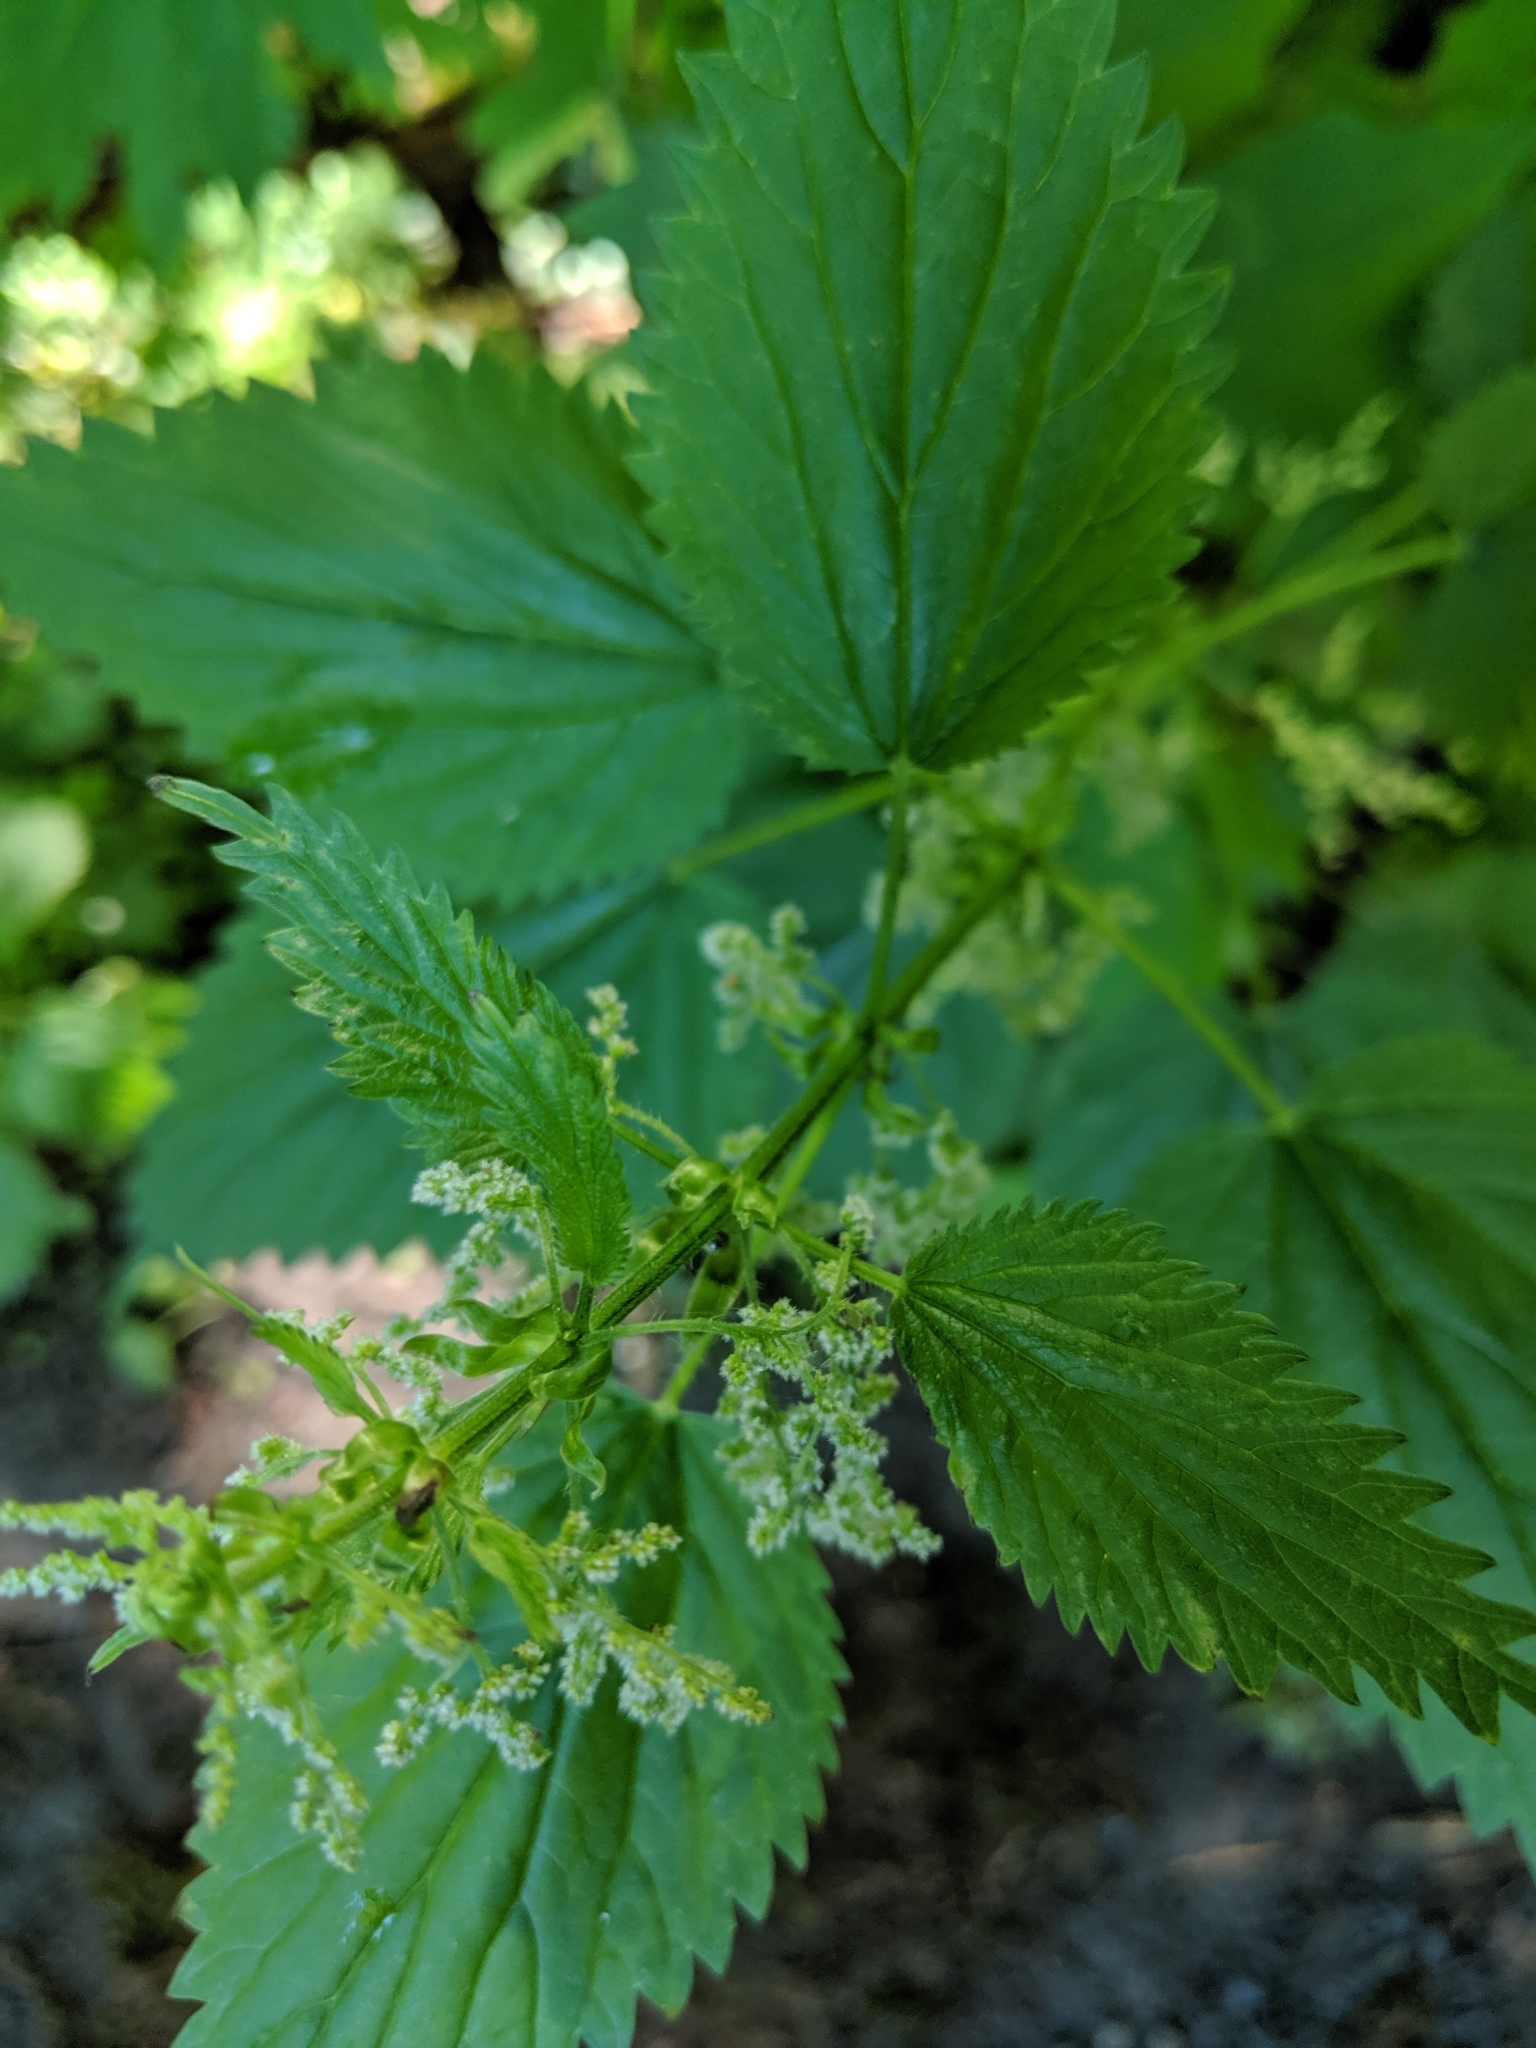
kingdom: Plantae
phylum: Tracheophyta
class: Magnoliopsida
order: Rosales
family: Urticaceae
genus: Urtica
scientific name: Urtica dioica
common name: Common nettle
